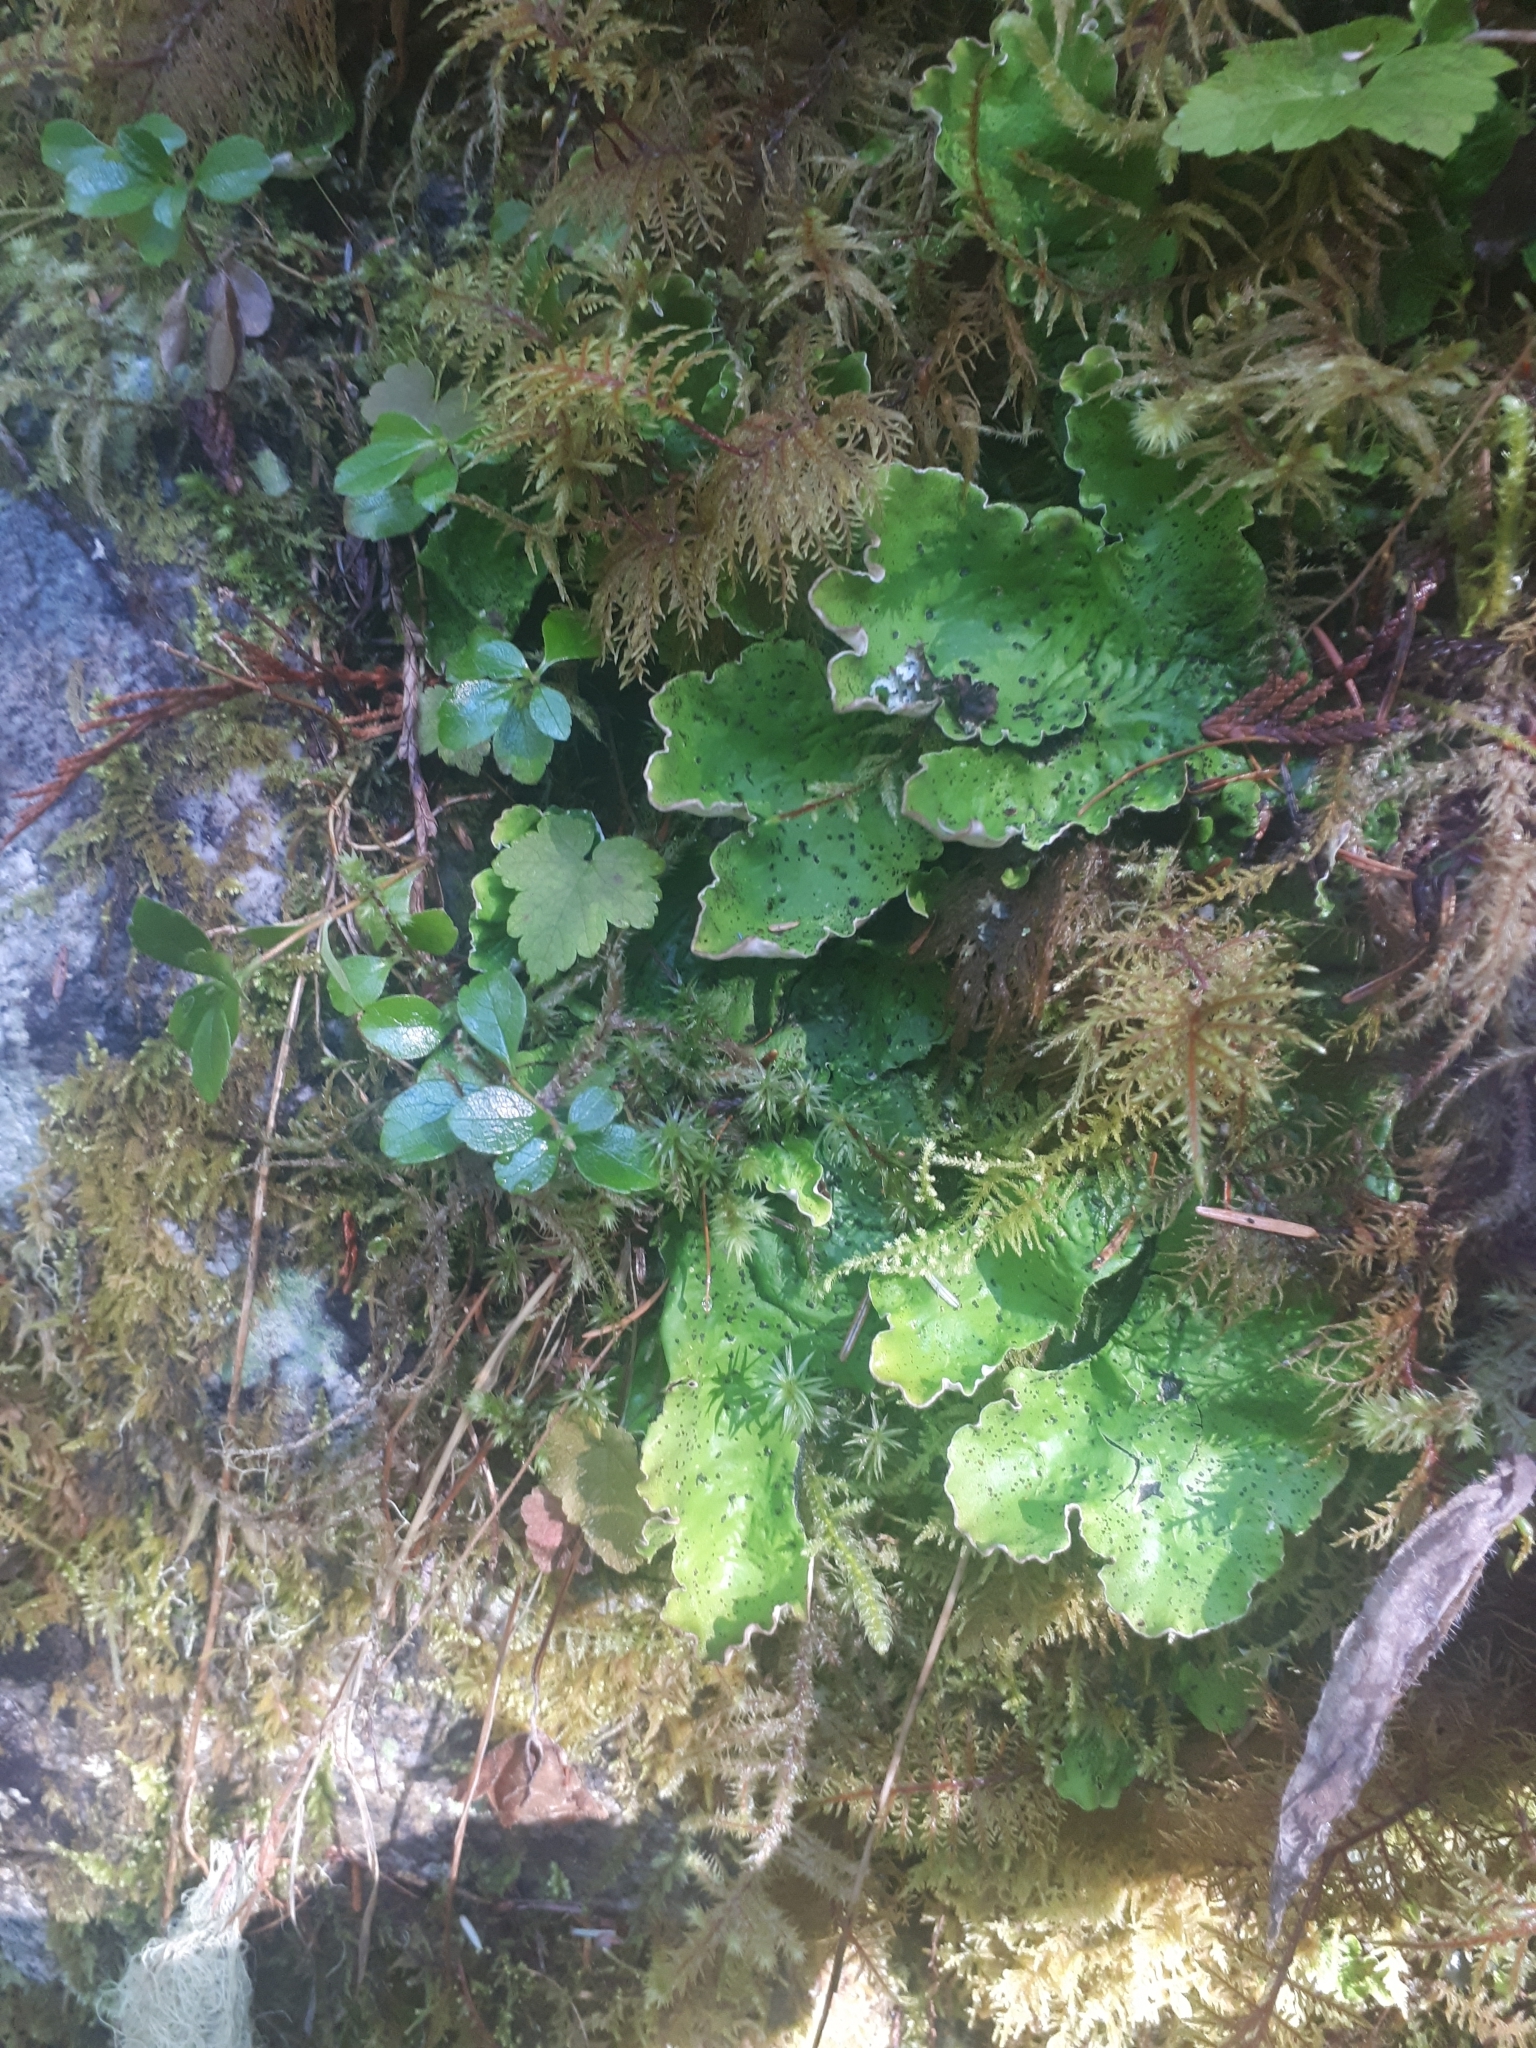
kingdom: Fungi
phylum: Ascomycota
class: Lecanoromycetes
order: Peltigerales
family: Peltigeraceae
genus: Peltigera
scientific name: Peltigera aphthosa
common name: Common freckle pelt lichen
